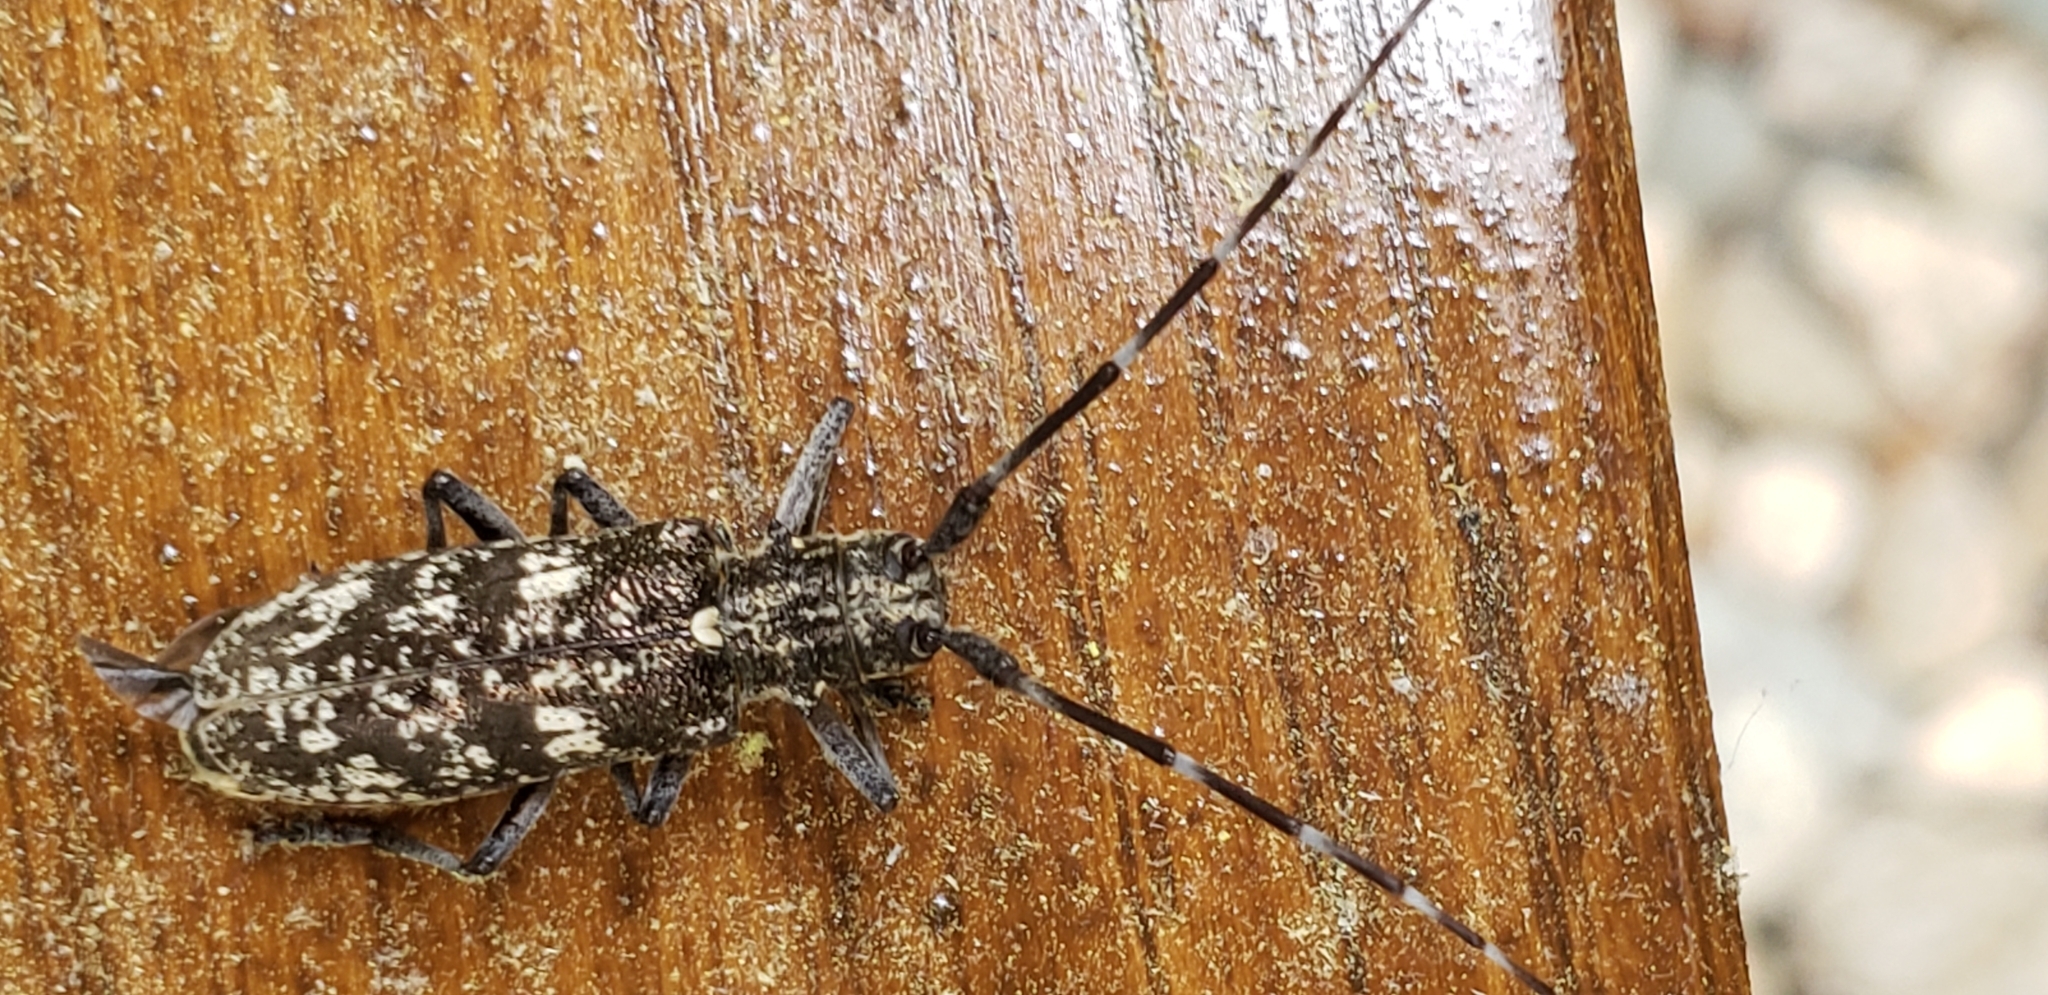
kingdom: Animalia
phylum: Arthropoda
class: Insecta
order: Coleoptera
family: Cerambycidae
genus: Monochamus
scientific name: Monochamus scutellatus
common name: White-spotted sawyer beetle
